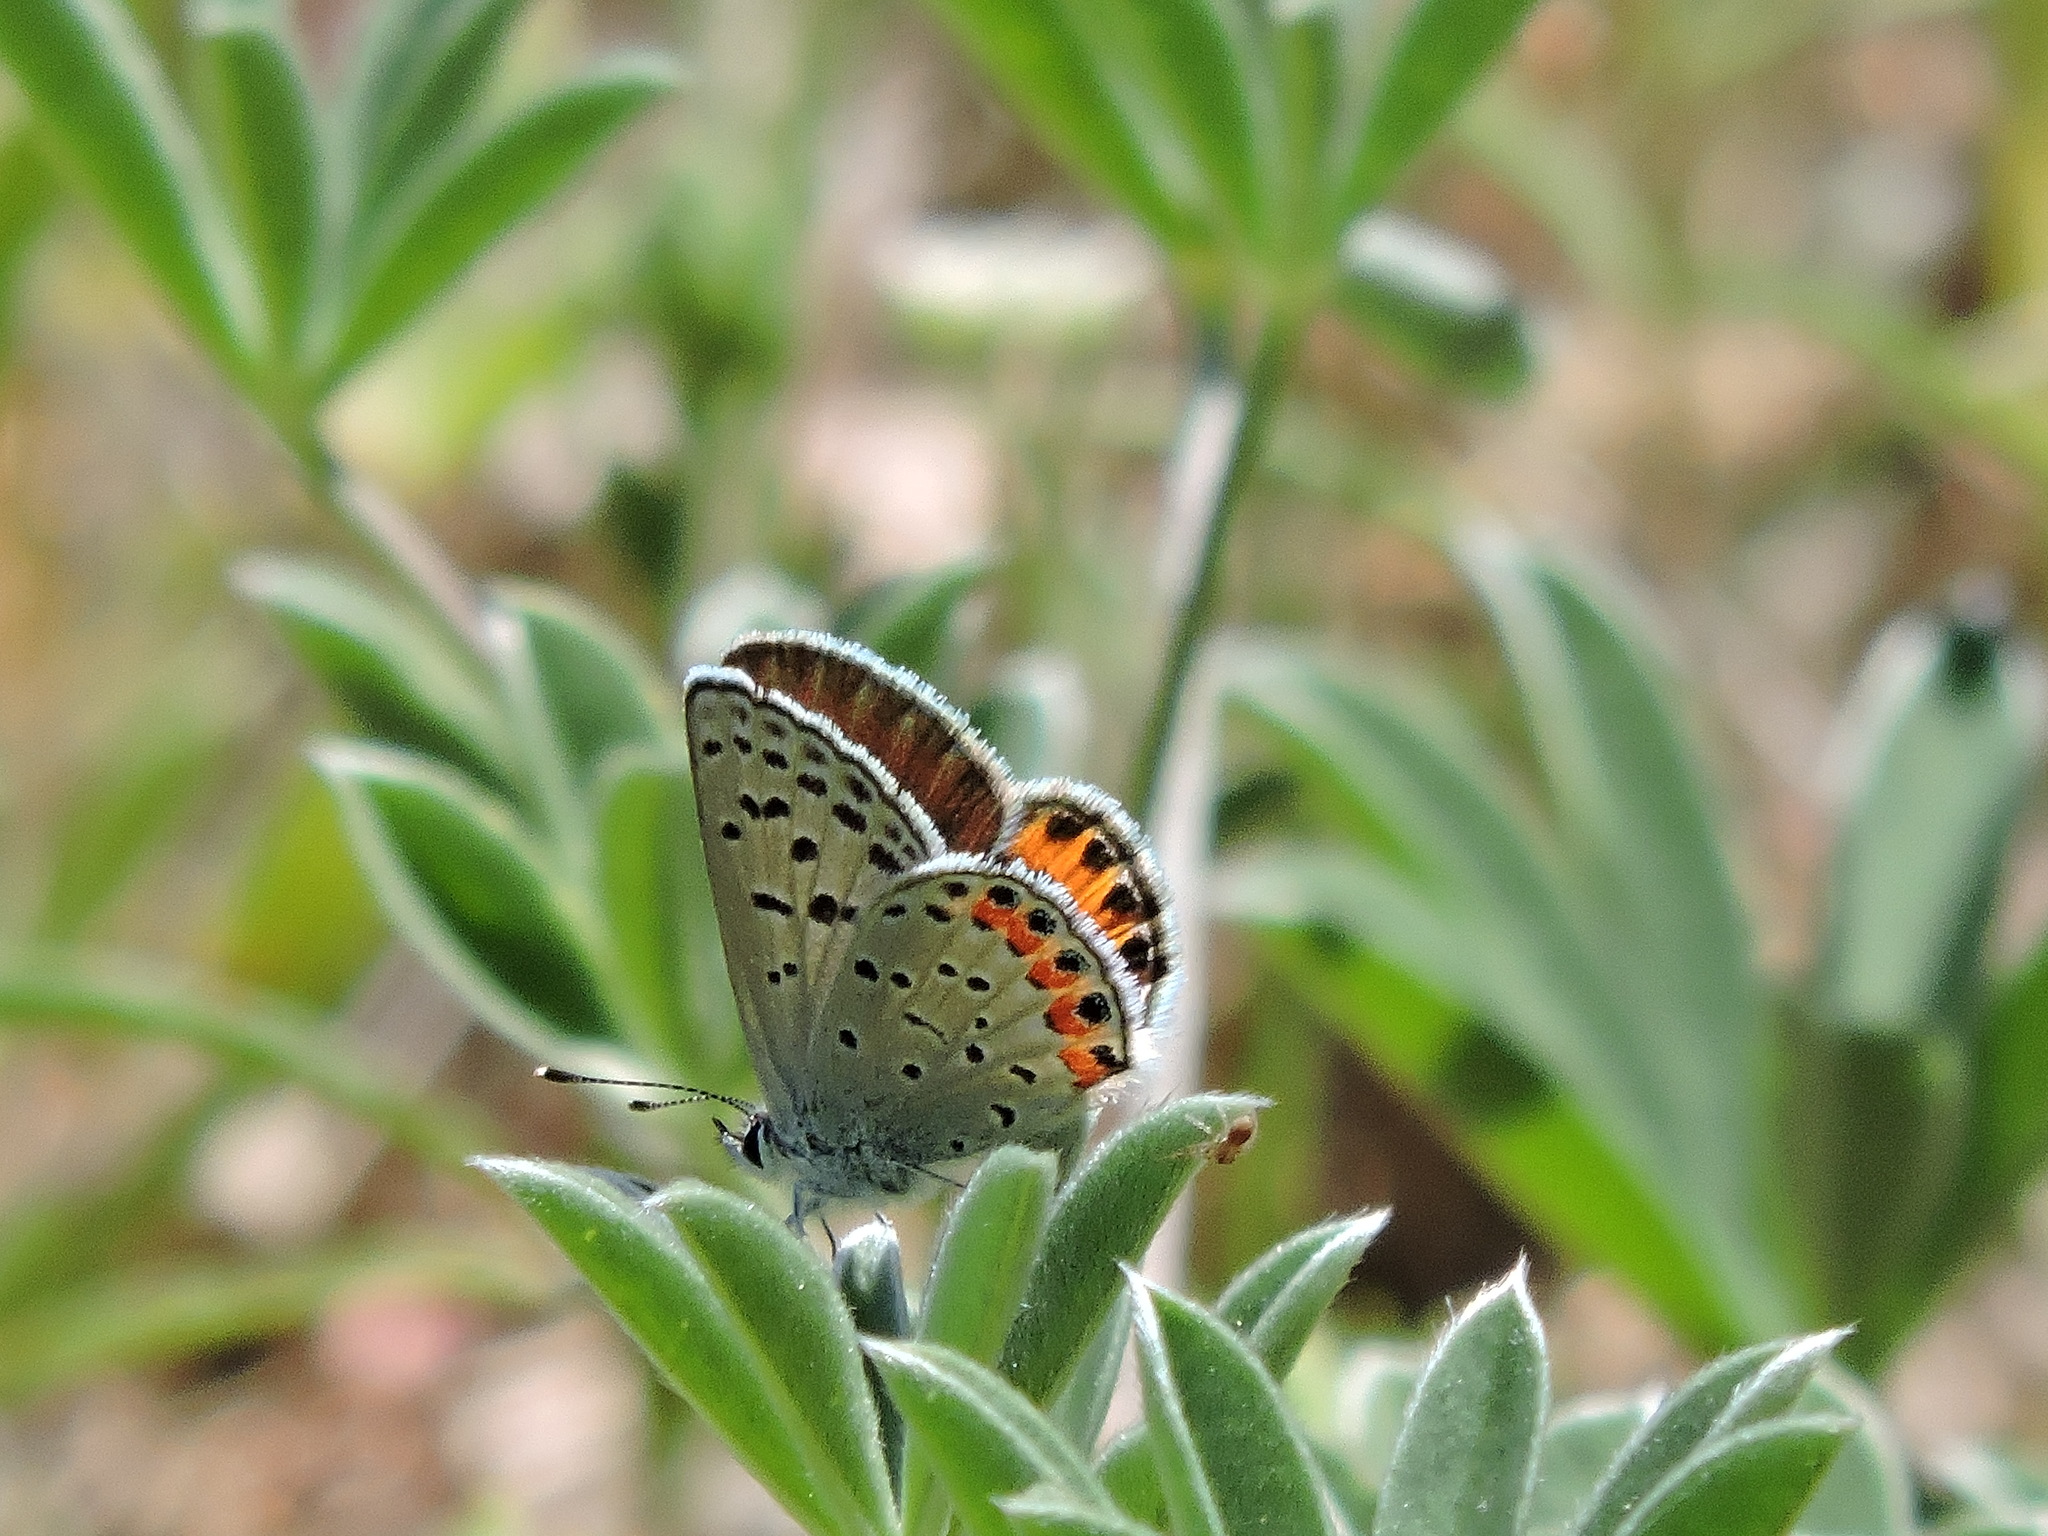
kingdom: Animalia
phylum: Arthropoda
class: Insecta
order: Lepidoptera
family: Lycaenidae
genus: Icaricia
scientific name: Icaricia acmon
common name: Acmon blue
